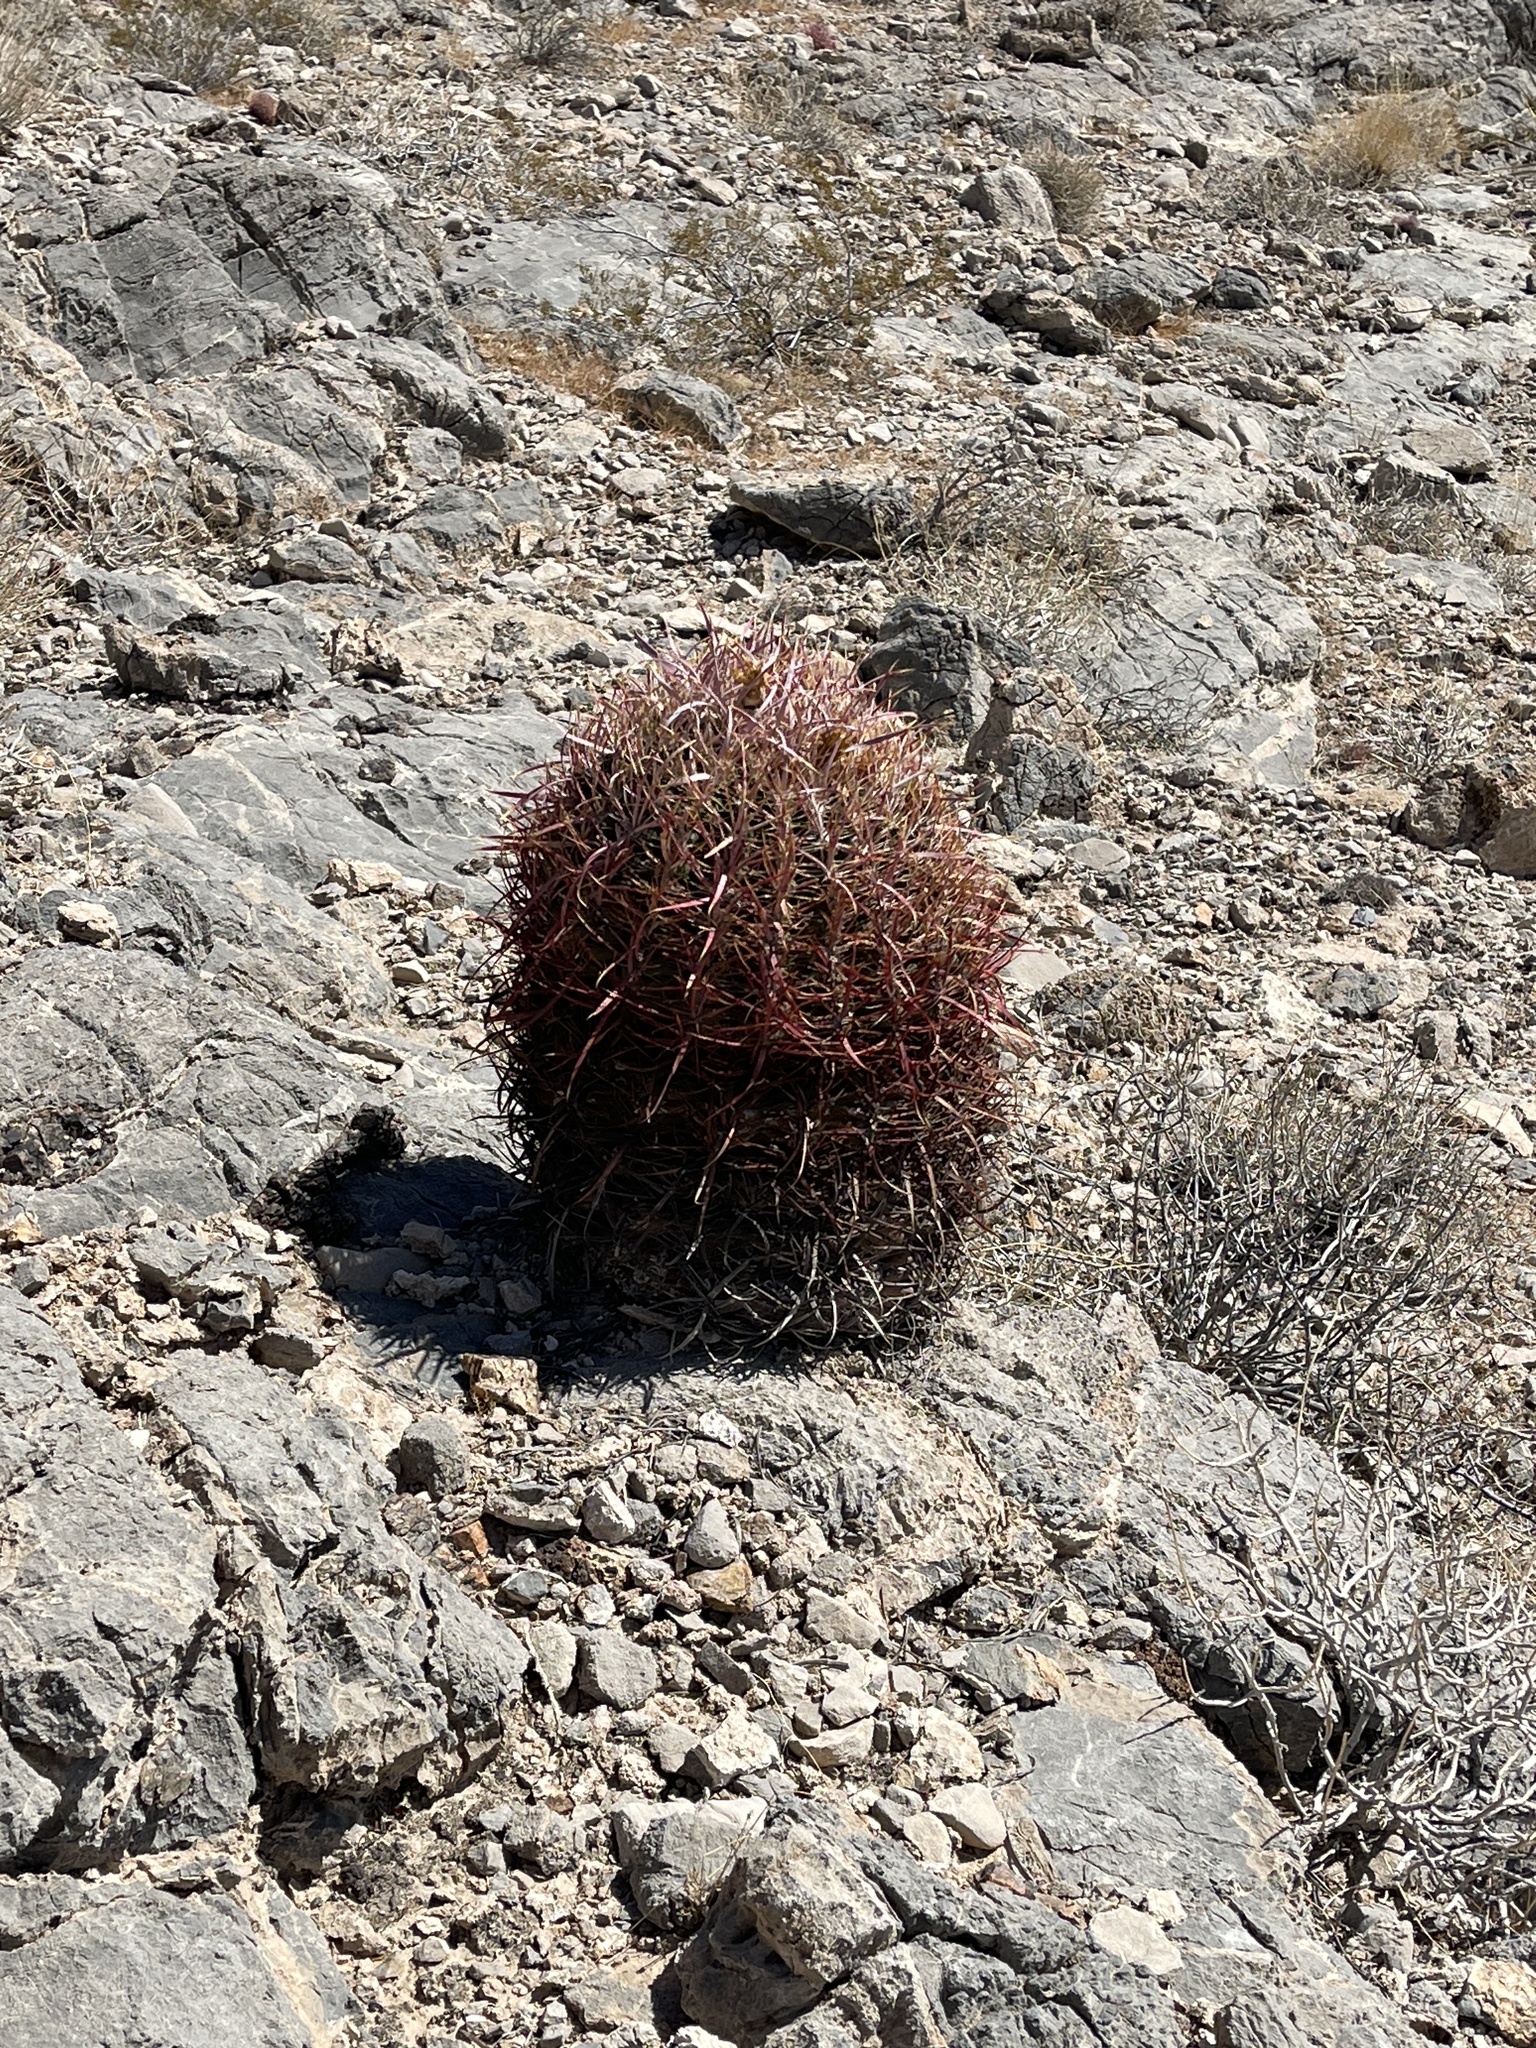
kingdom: Plantae
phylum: Tracheophyta
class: Magnoliopsida
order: Caryophyllales
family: Cactaceae
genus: Ferocactus
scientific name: Ferocactus cylindraceus
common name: California barrel cactus
